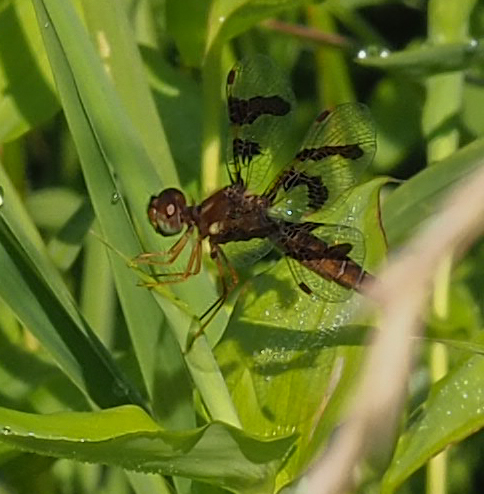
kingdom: Animalia
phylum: Arthropoda
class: Insecta
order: Odonata
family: Libellulidae
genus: Perithemis
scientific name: Perithemis tenera
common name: Eastern amberwing
